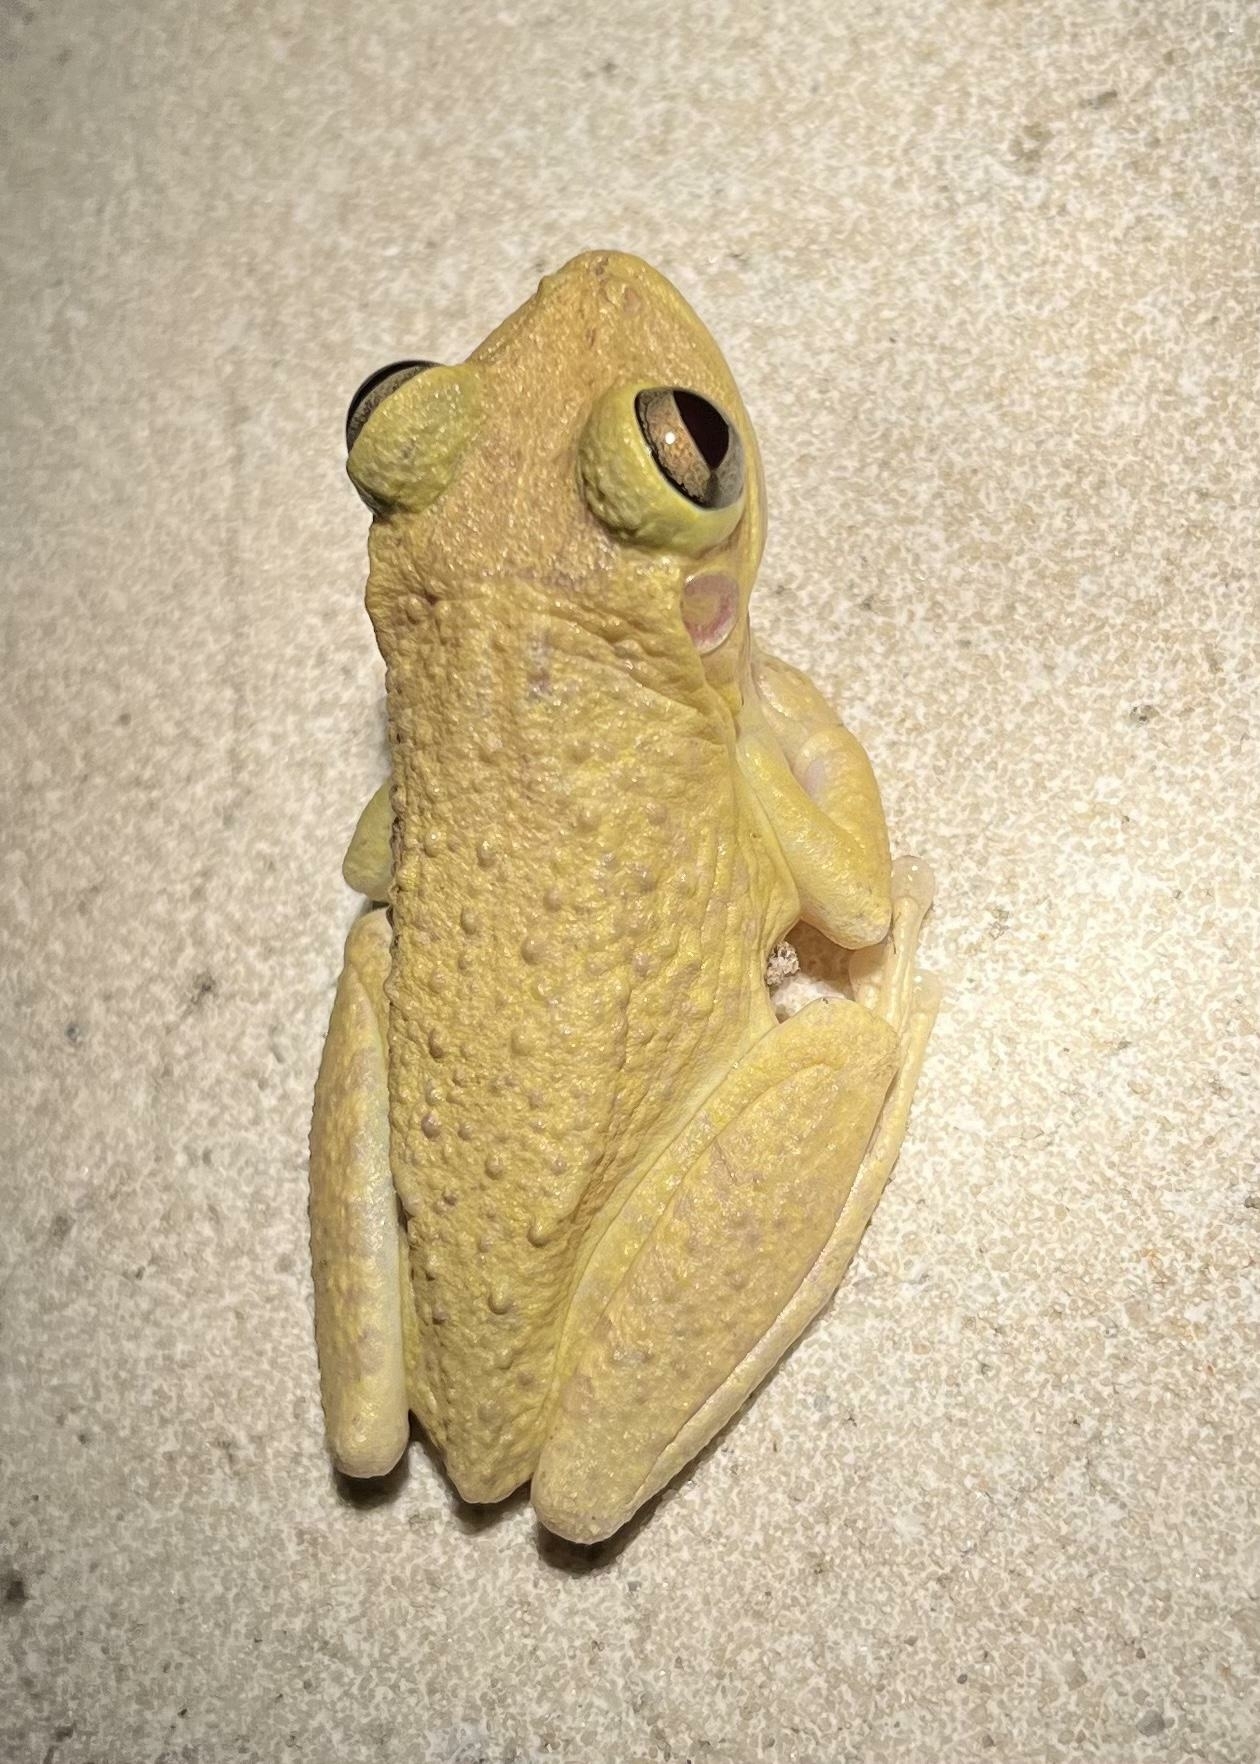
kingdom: Animalia
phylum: Chordata
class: Amphibia
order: Anura
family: Hylidae
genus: Osteopilus
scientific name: Osteopilus septentrionalis
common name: Cuban treefrog
